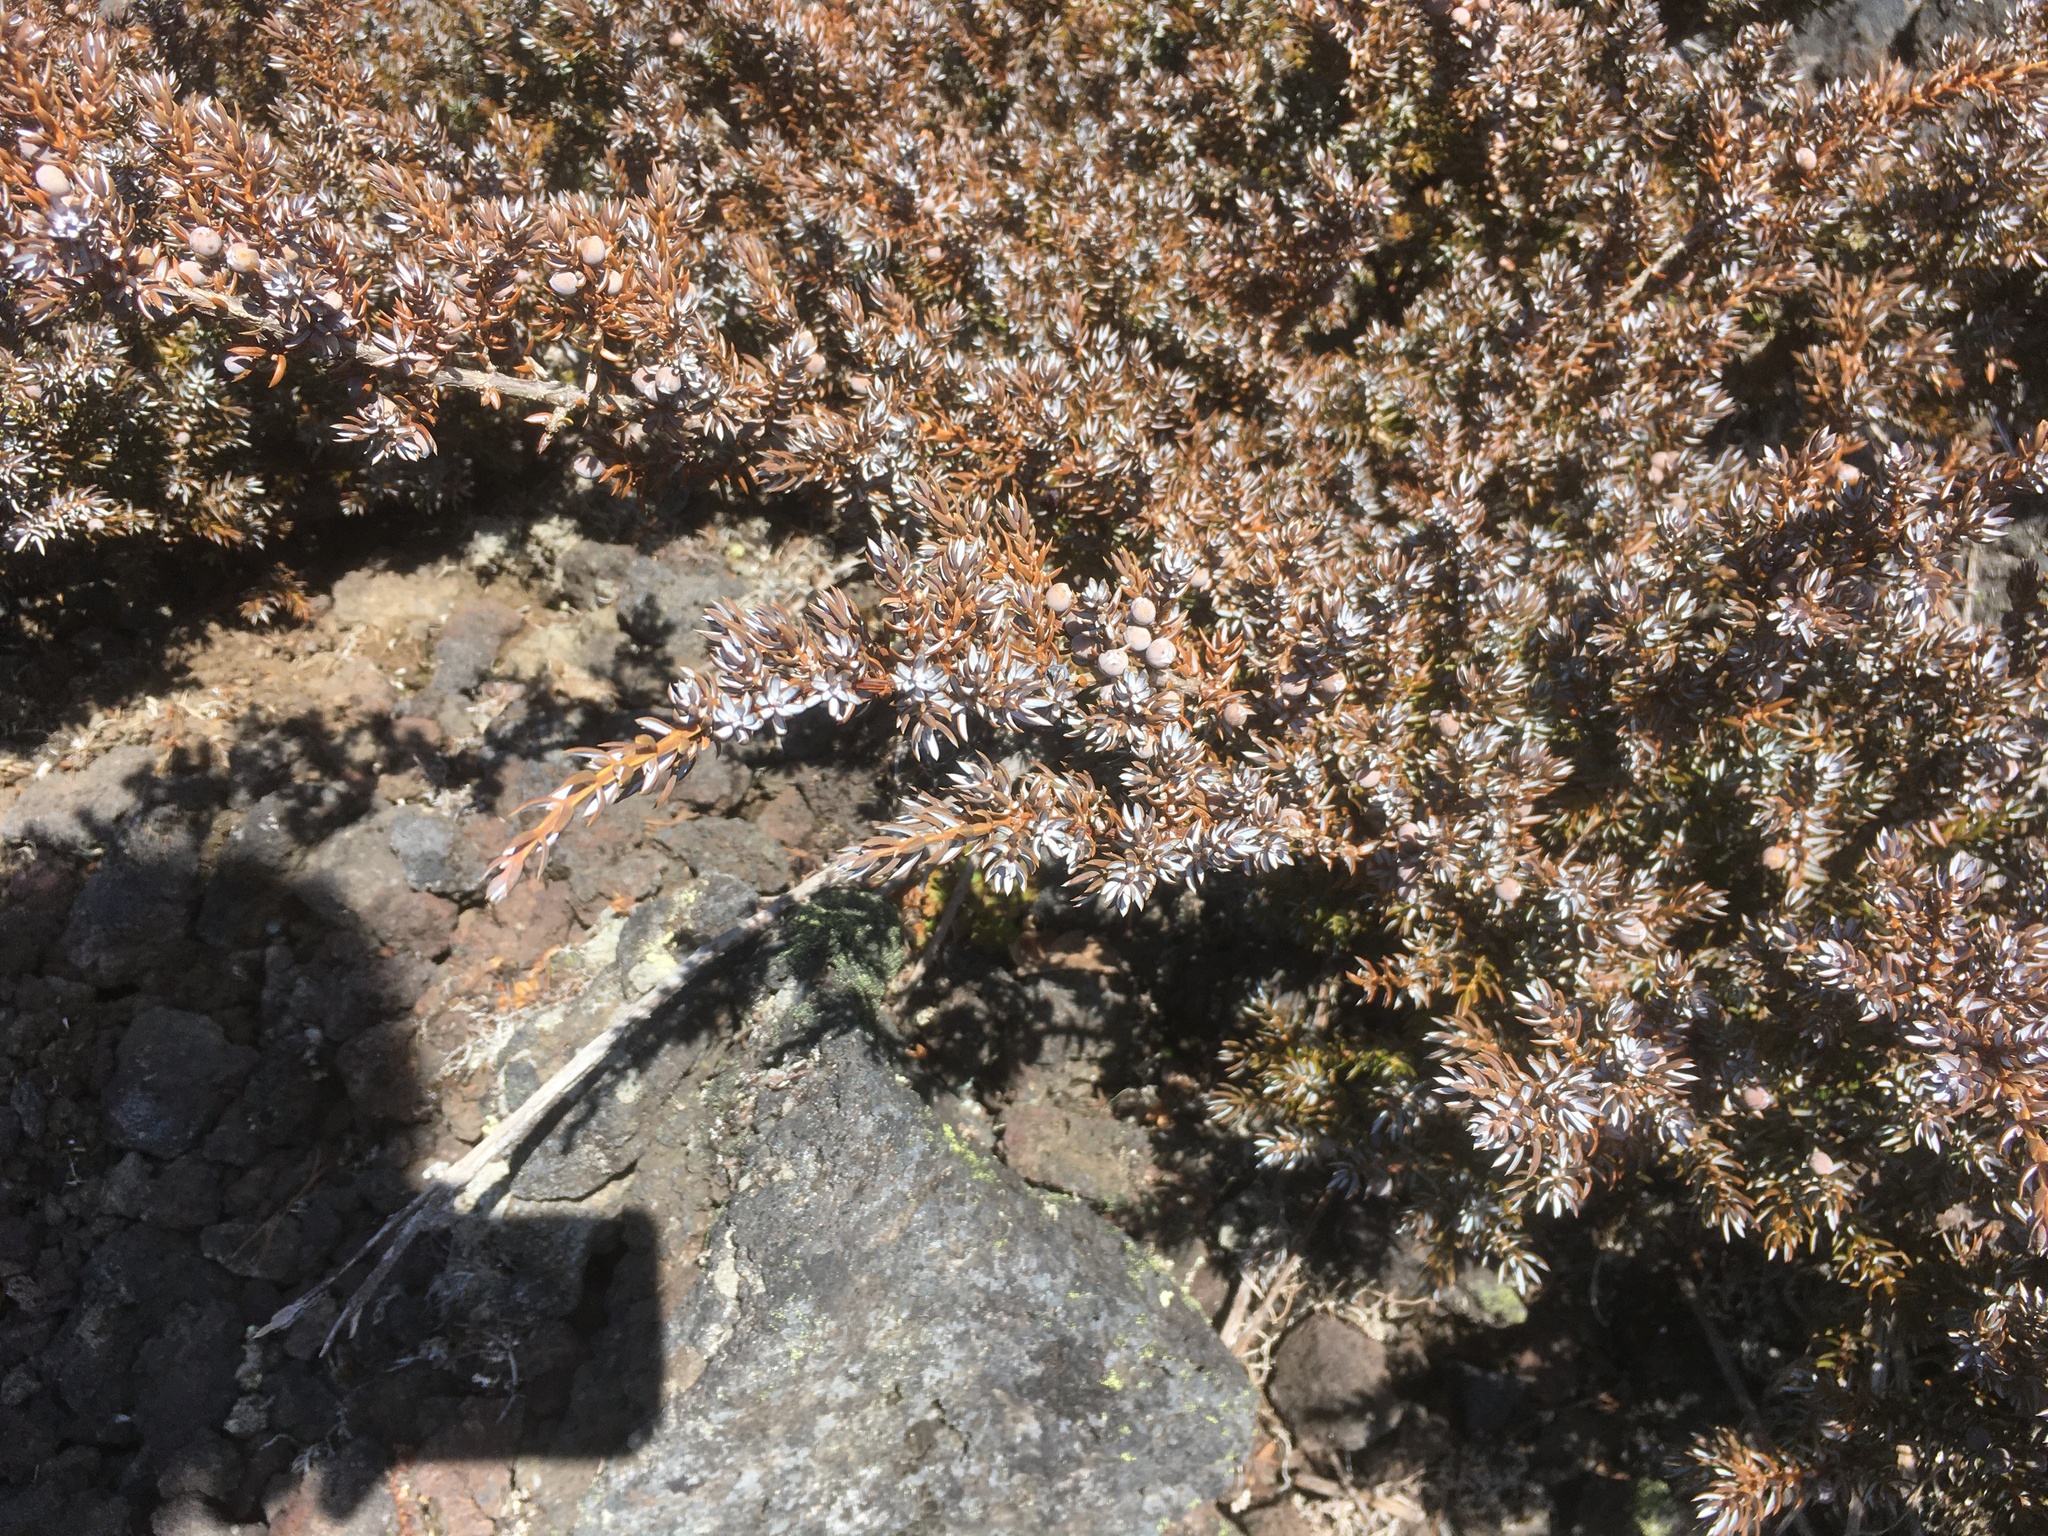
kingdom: Plantae
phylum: Tracheophyta
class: Pinopsida
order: Pinales
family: Cupressaceae
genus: Juniperus
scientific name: Juniperus communis
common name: Common juniper
